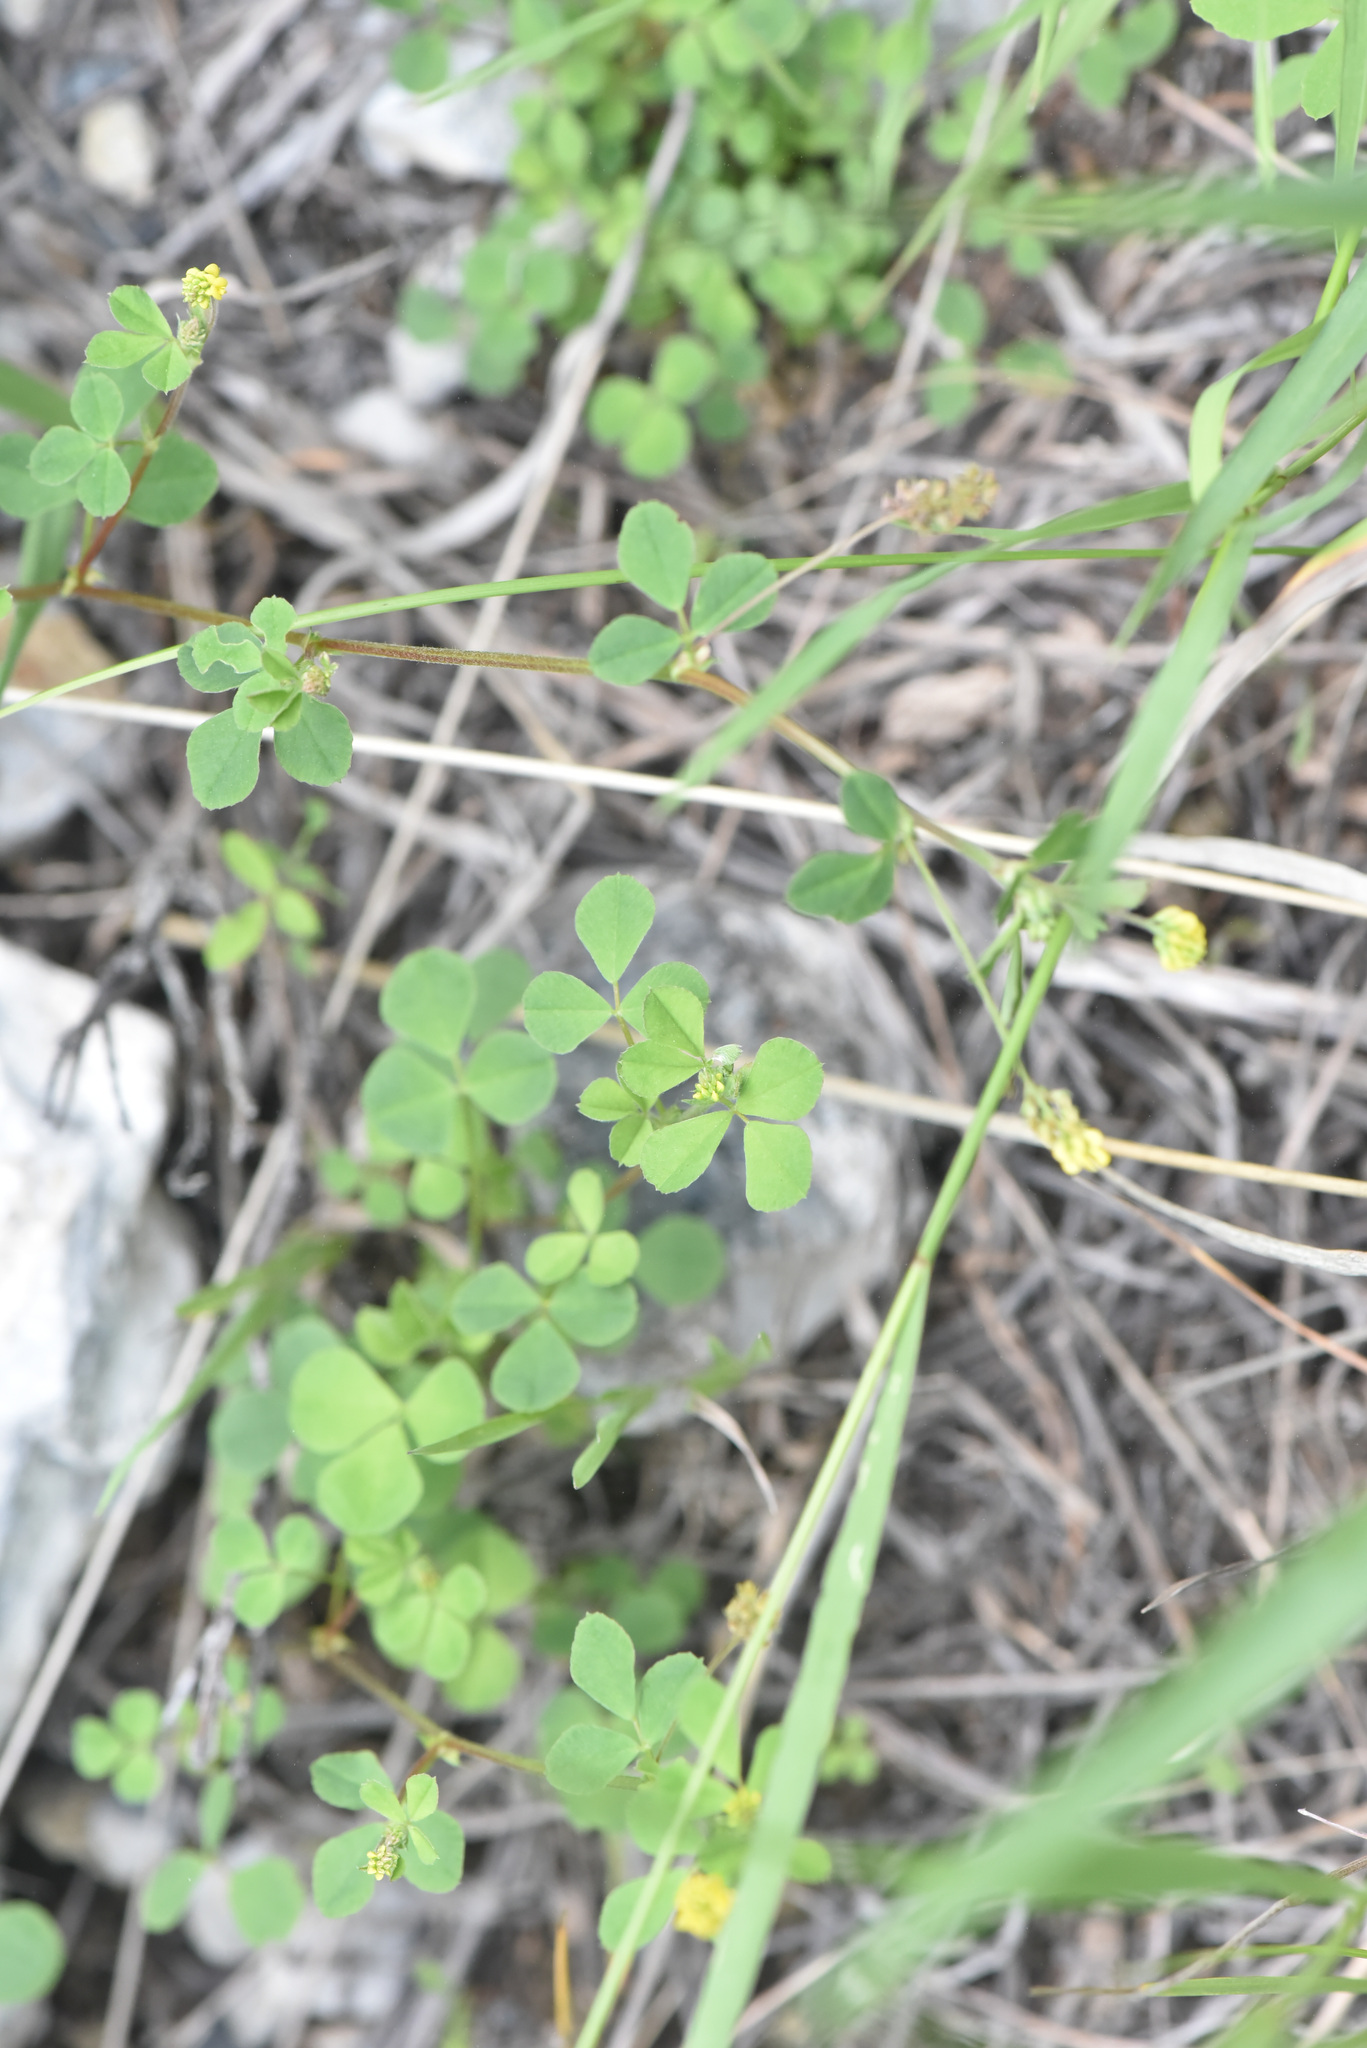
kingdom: Plantae
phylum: Tracheophyta
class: Magnoliopsida
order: Fabales
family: Fabaceae
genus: Medicago
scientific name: Medicago lupulina
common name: Black medick
